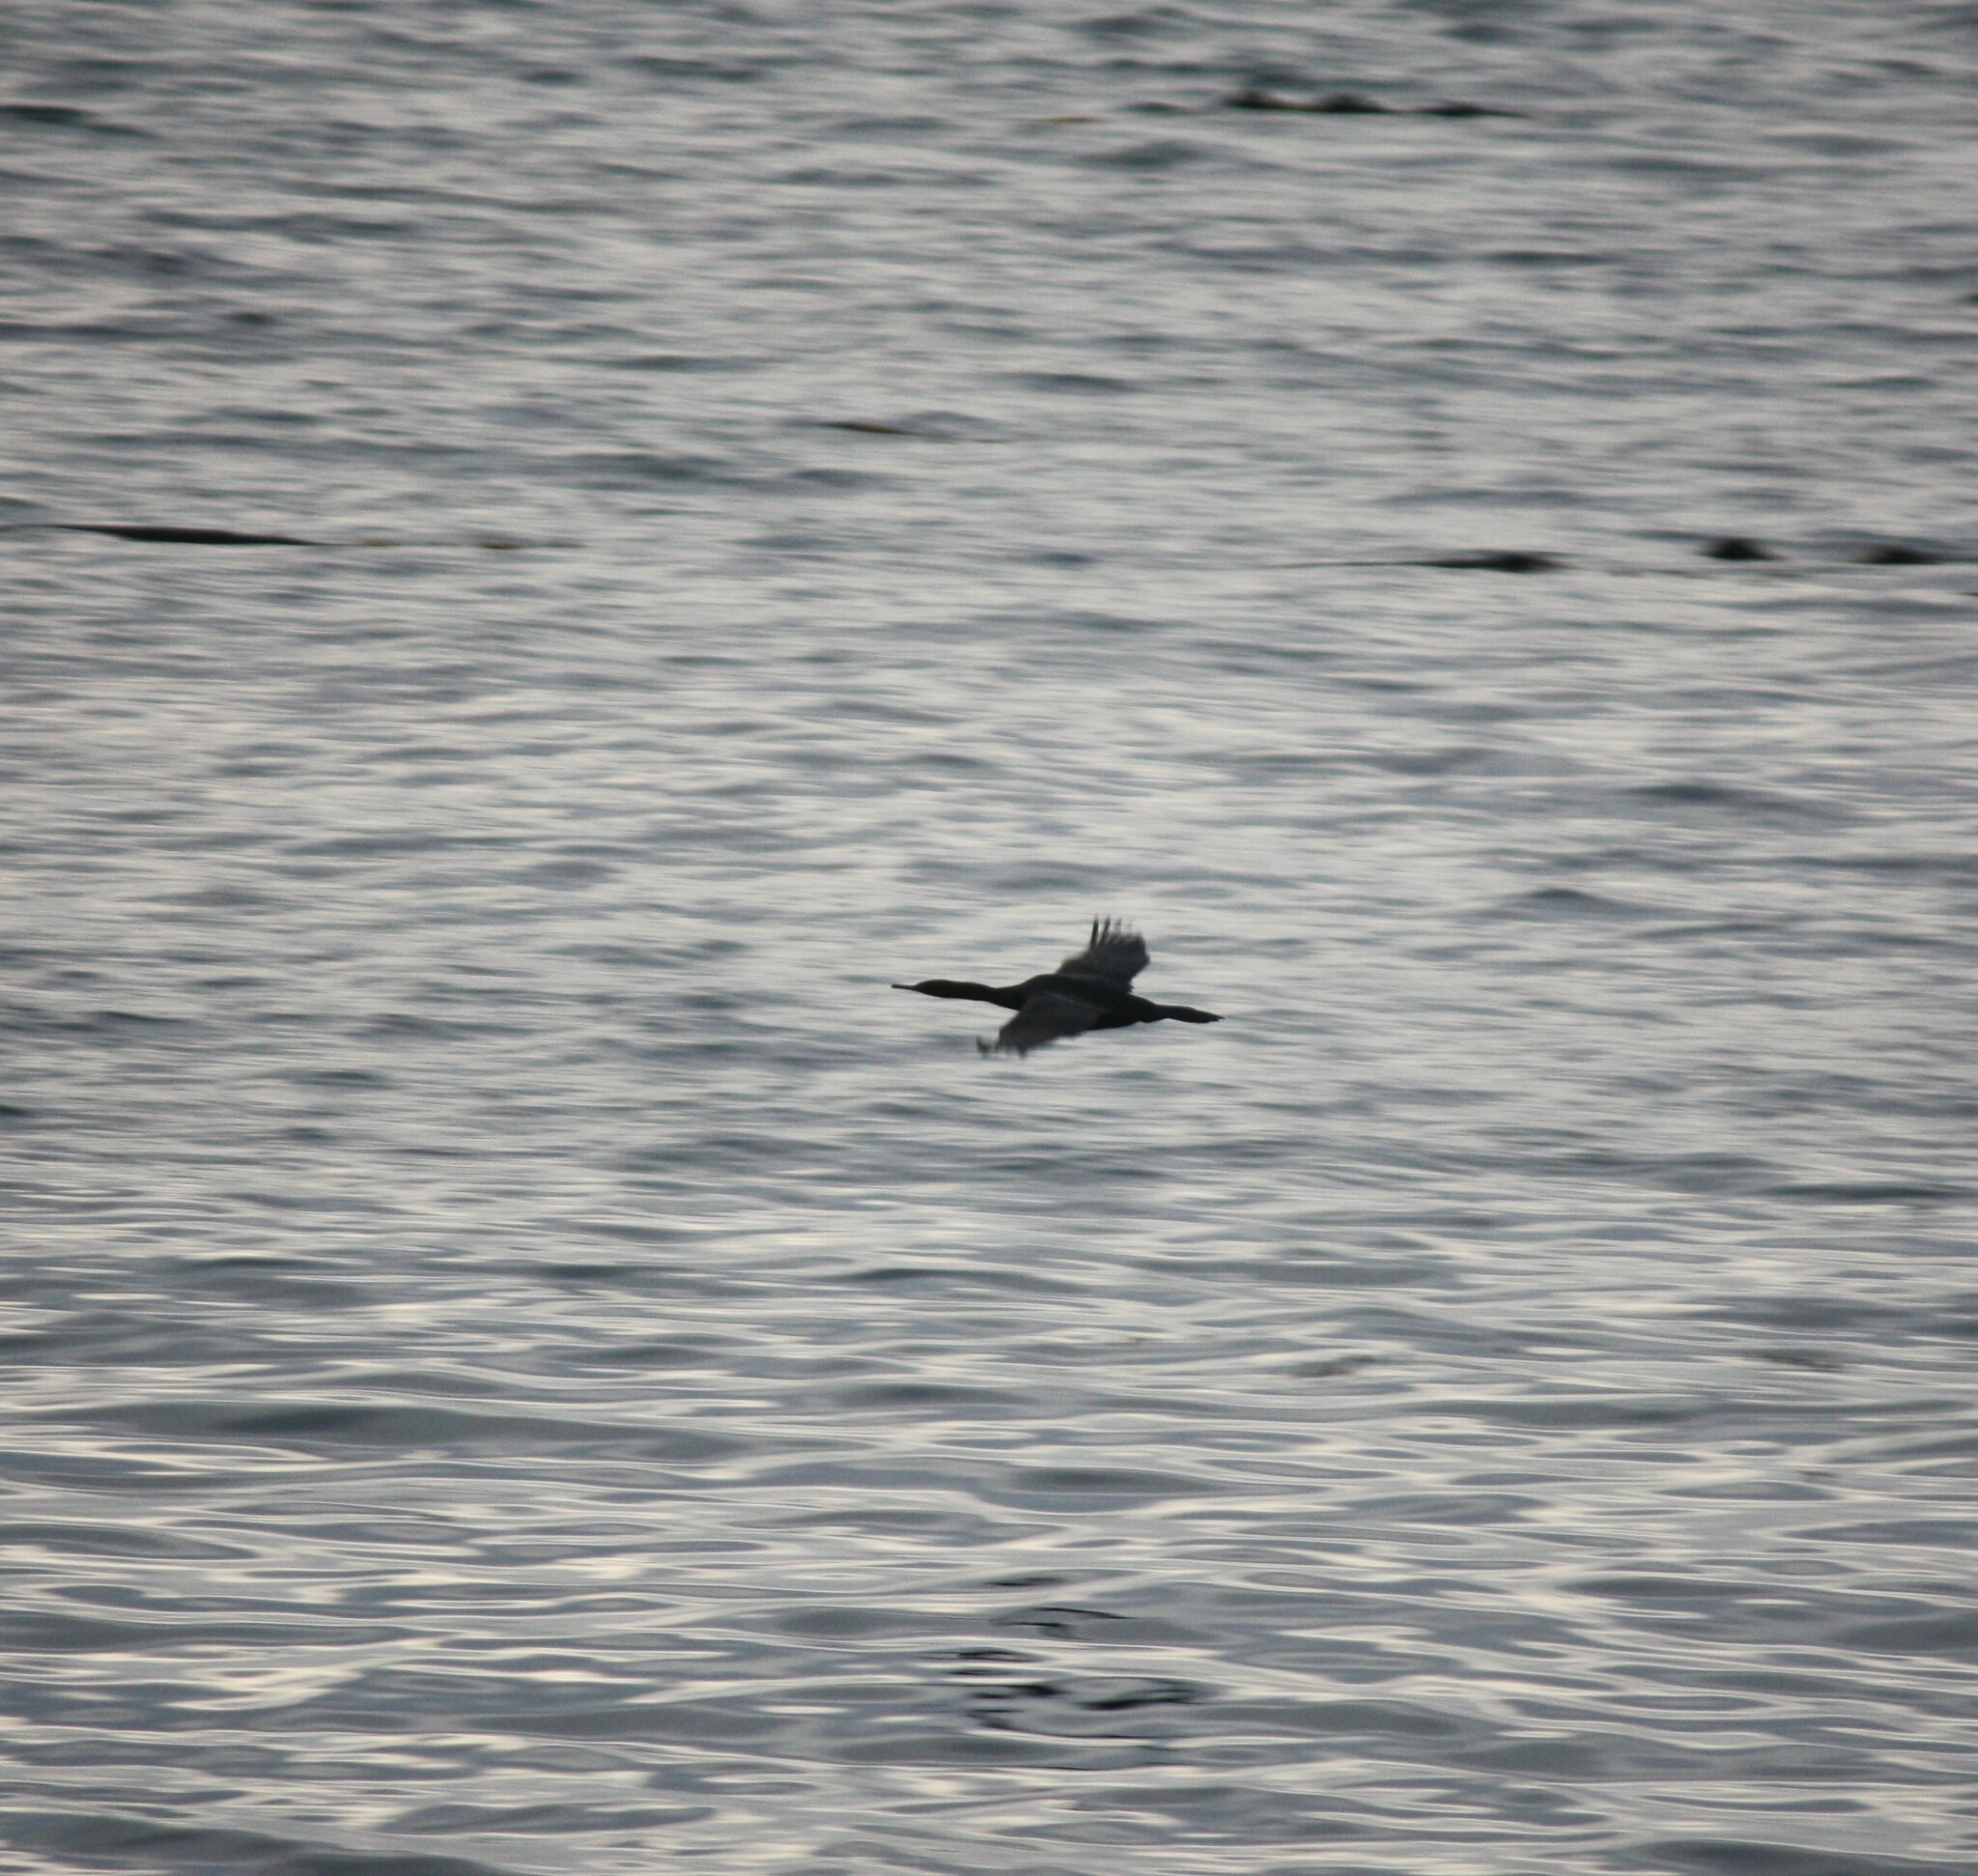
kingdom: Animalia
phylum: Chordata
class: Aves
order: Suliformes
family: Phalacrocoracidae
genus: Phalacrocorax
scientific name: Phalacrocorax pelagicus
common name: Pelagic cormorant
